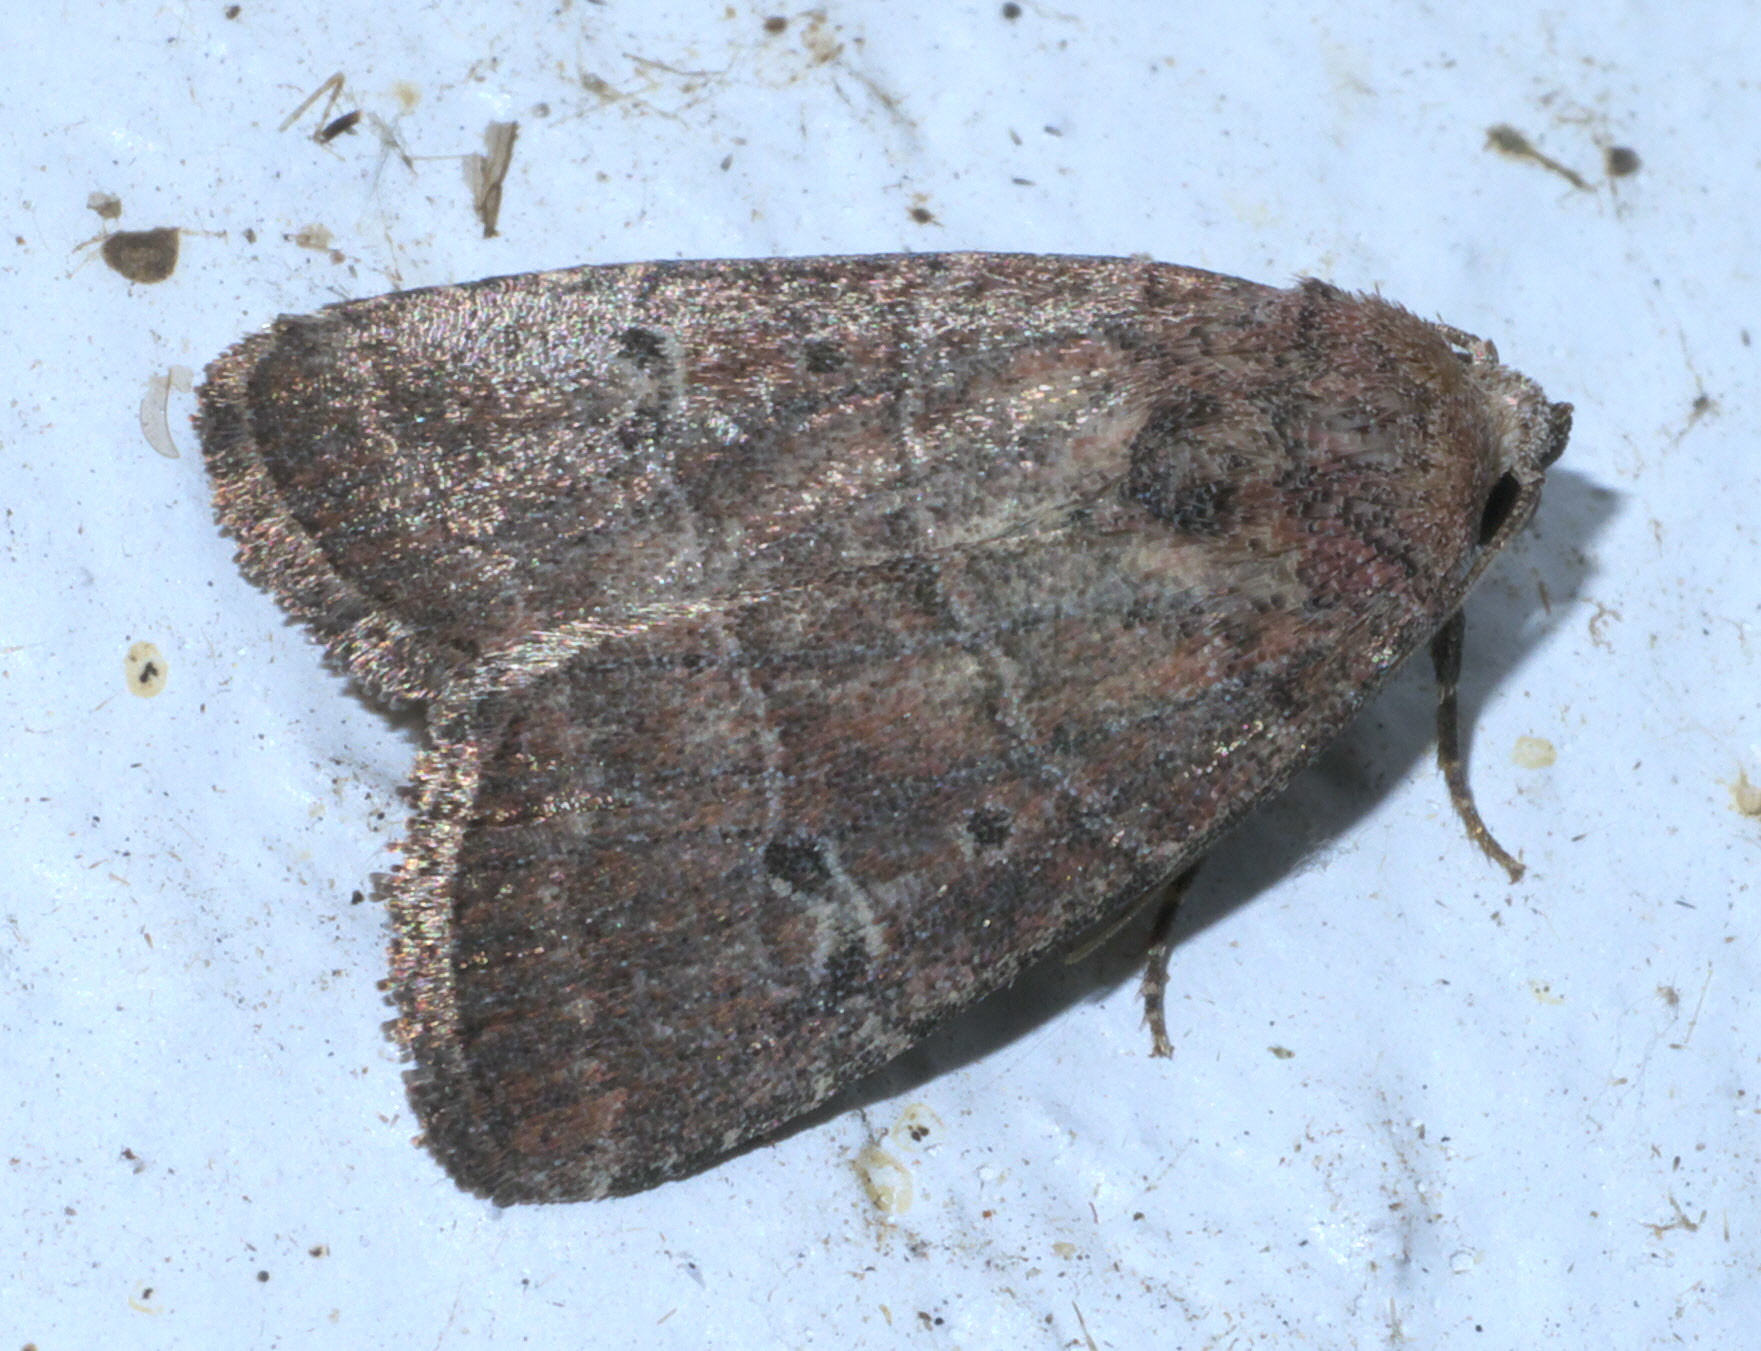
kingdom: Animalia
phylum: Arthropoda
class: Insecta
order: Lepidoptera
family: Noctuidae
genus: Elaphria
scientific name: Elaphria grata
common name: Grateful midget moth
